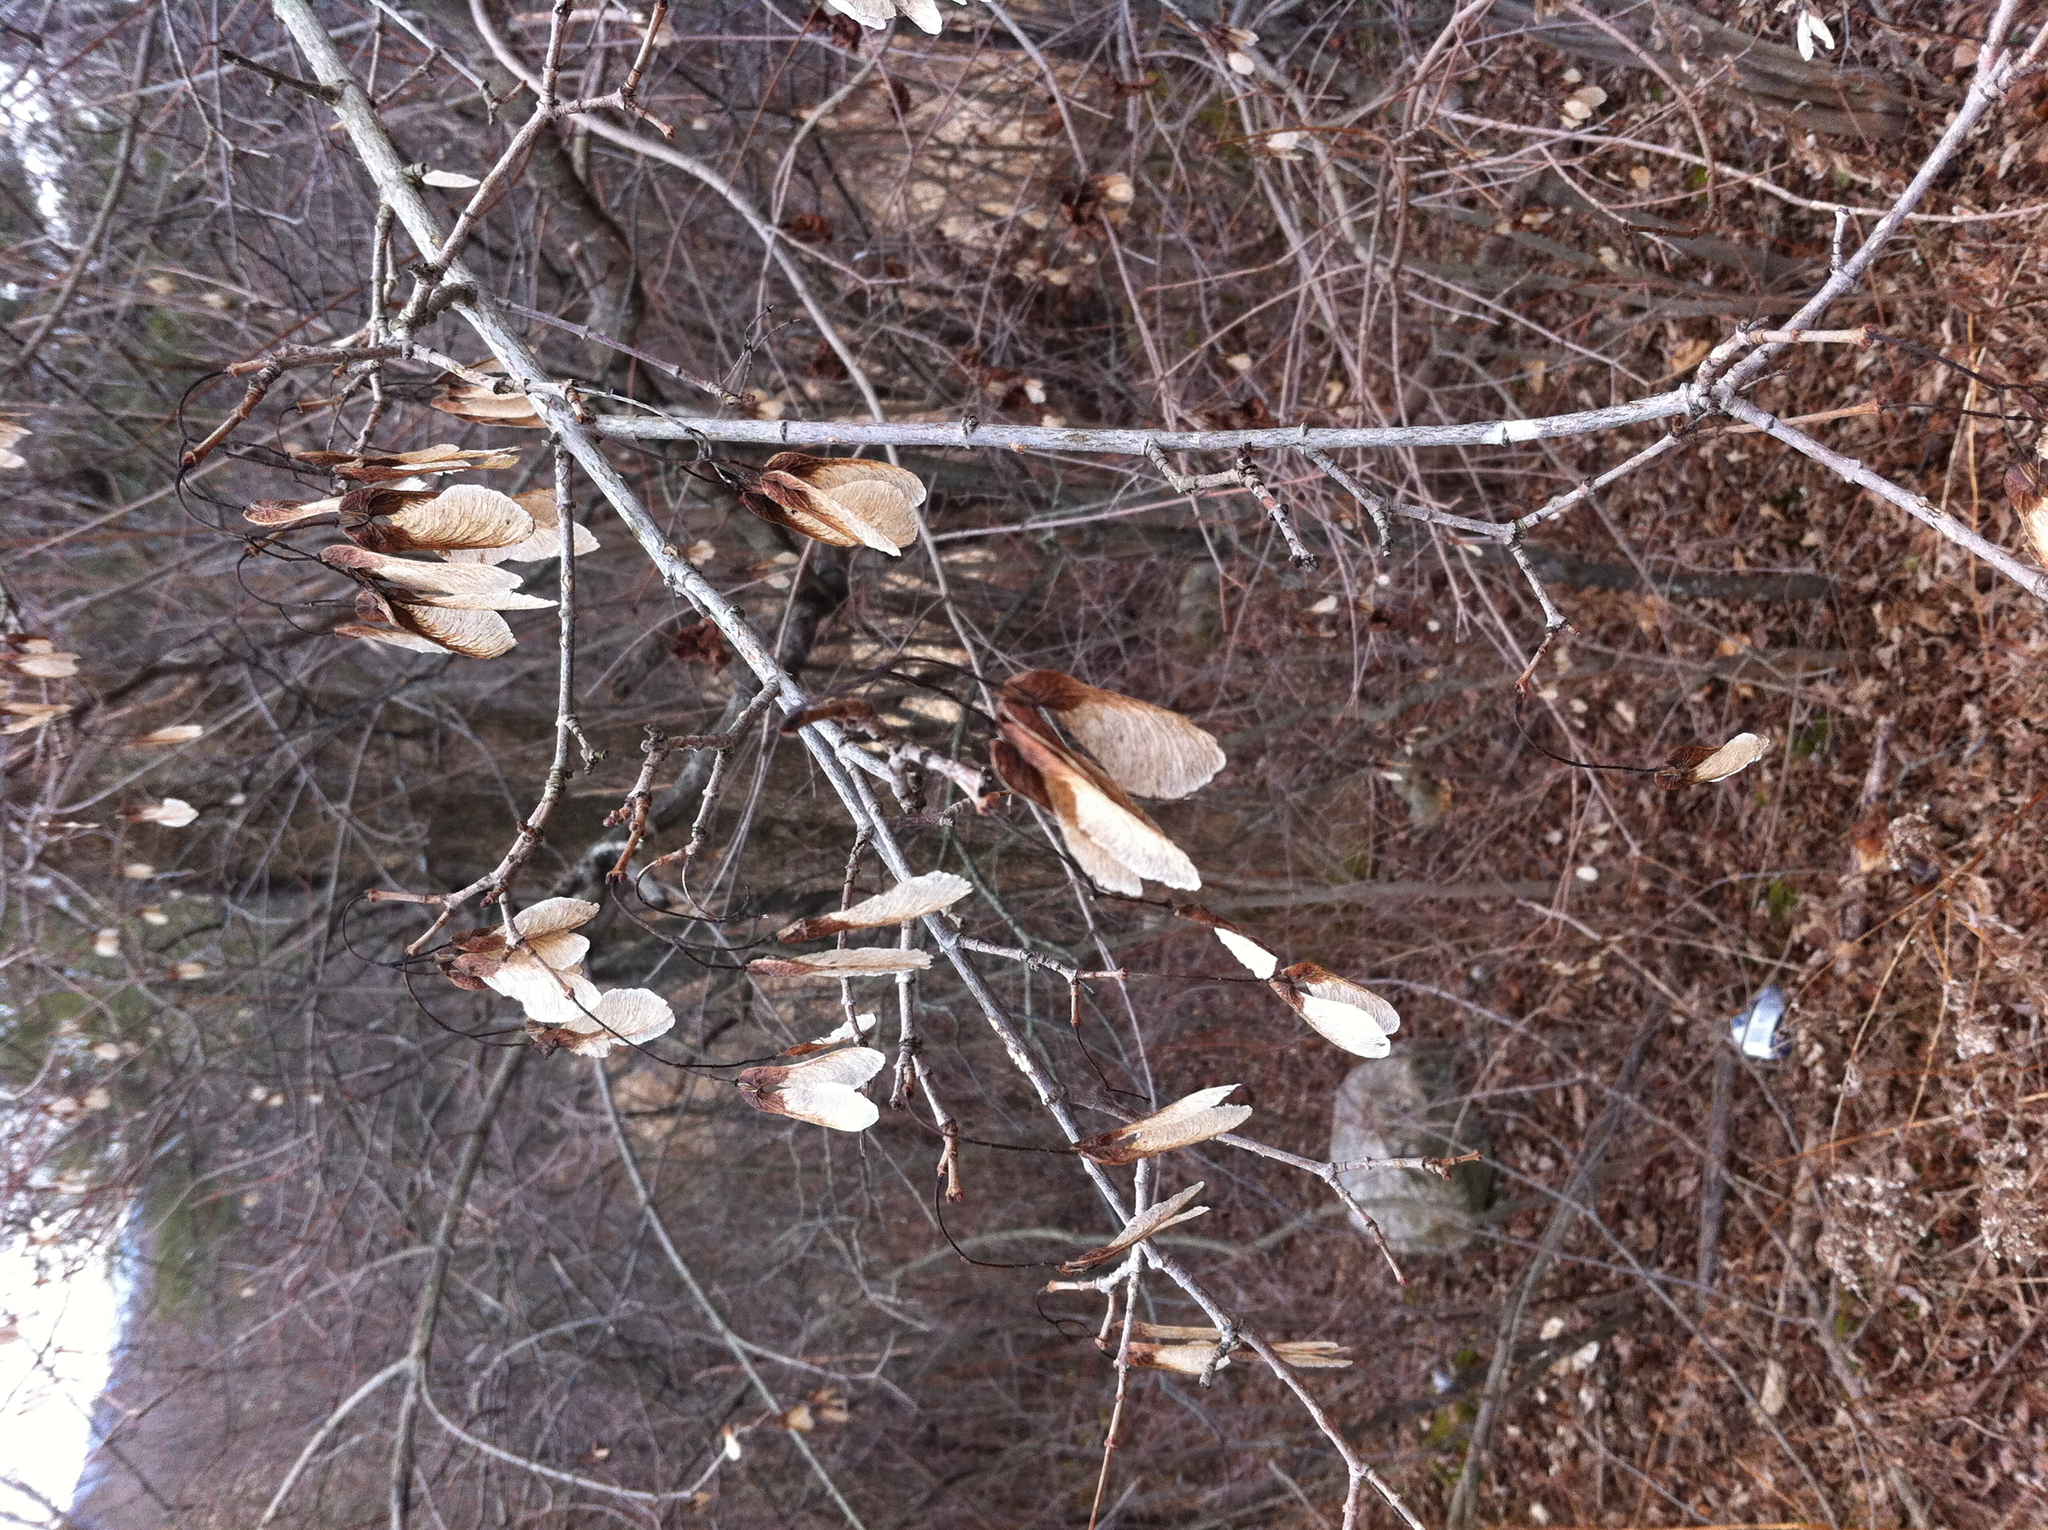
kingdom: Plantae
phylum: Tracheophyta
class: Magnoliopsida
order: Sapindales
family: Sapindaceae
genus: Acer
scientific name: Acer tataricum
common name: Tartar maple
